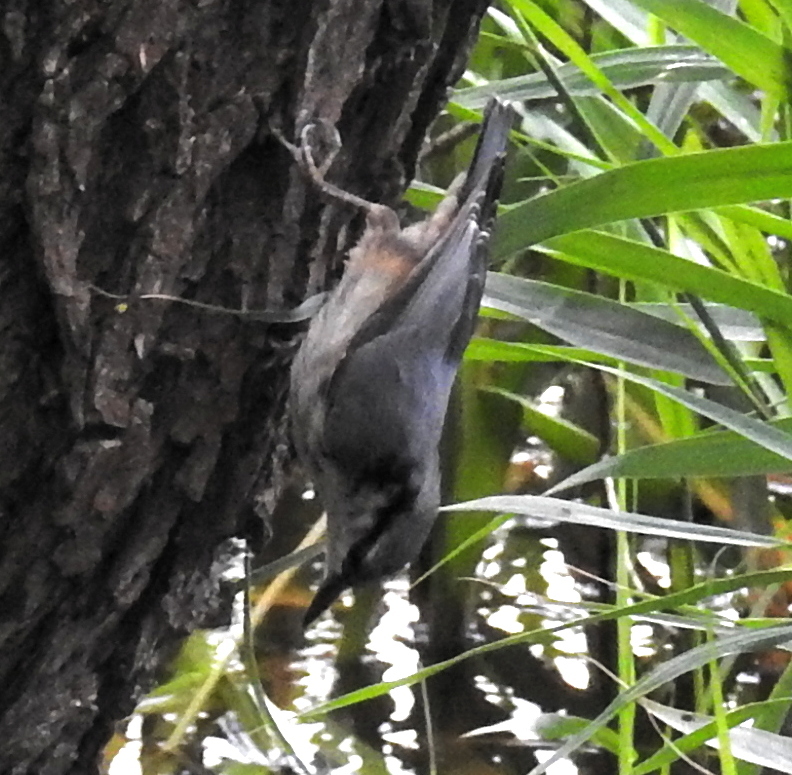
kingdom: Animalia
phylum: Chordata
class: Aves
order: Passeriformes
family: Sittidae
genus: Sitta
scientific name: Sitta europaea
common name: Eurasian nuthatch
